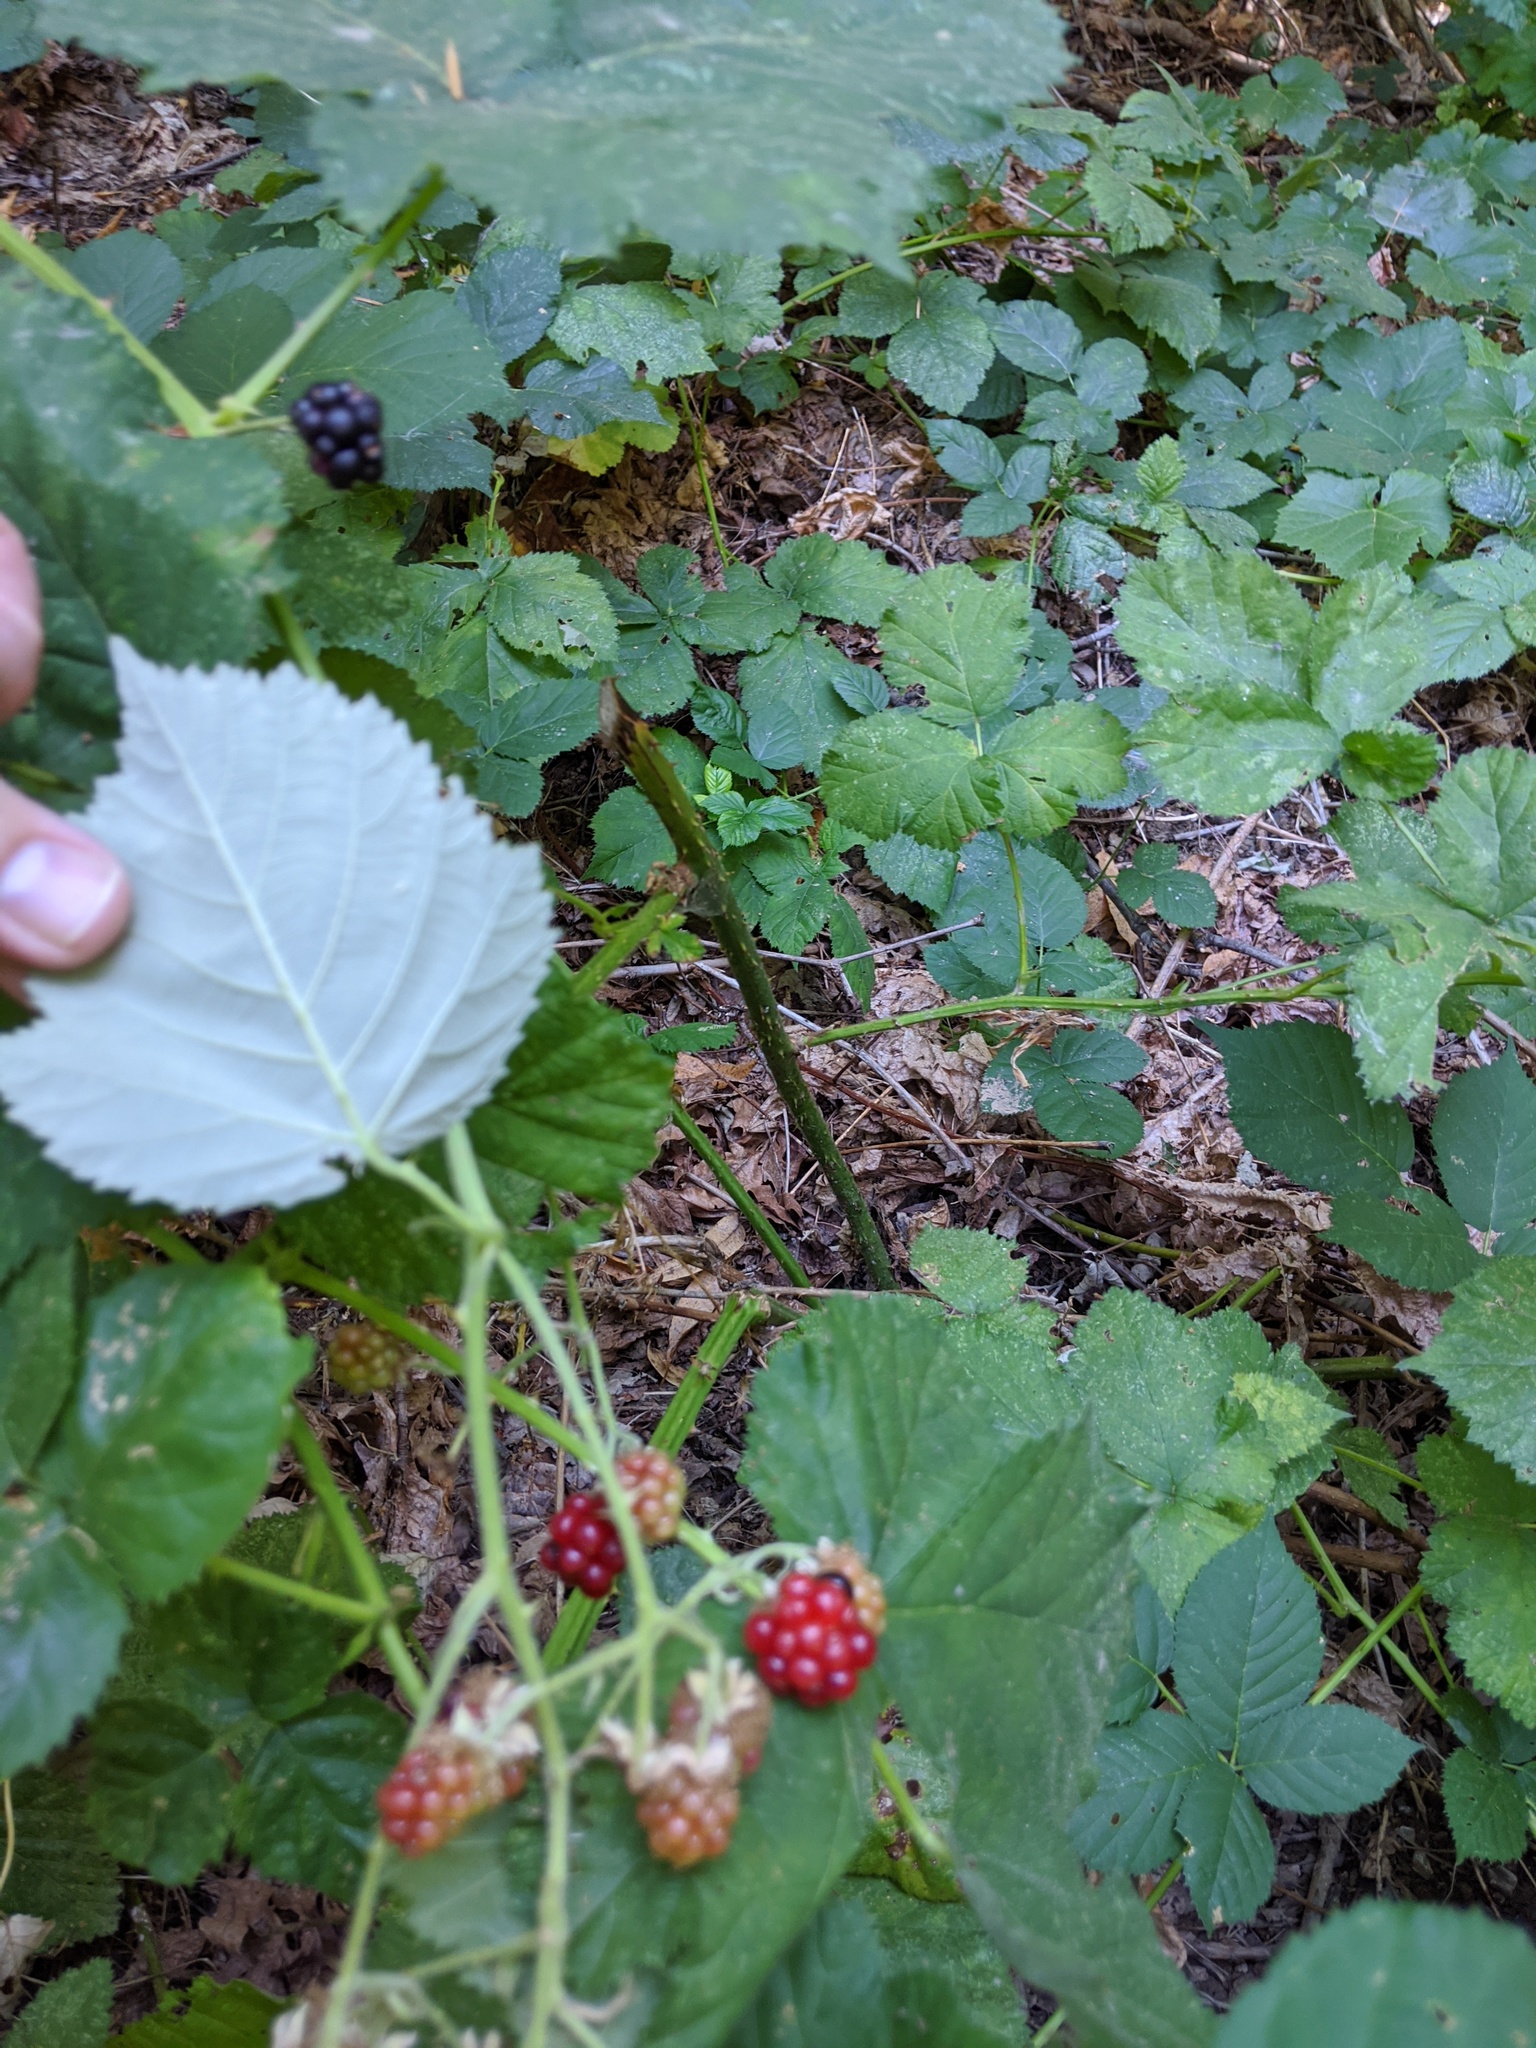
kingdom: Plantae
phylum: Tracheophyta
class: Magnoliopsida
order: Rosales
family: Rosaceae
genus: Rubus
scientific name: Rubus armeniacus
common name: Himalayan blackberry
